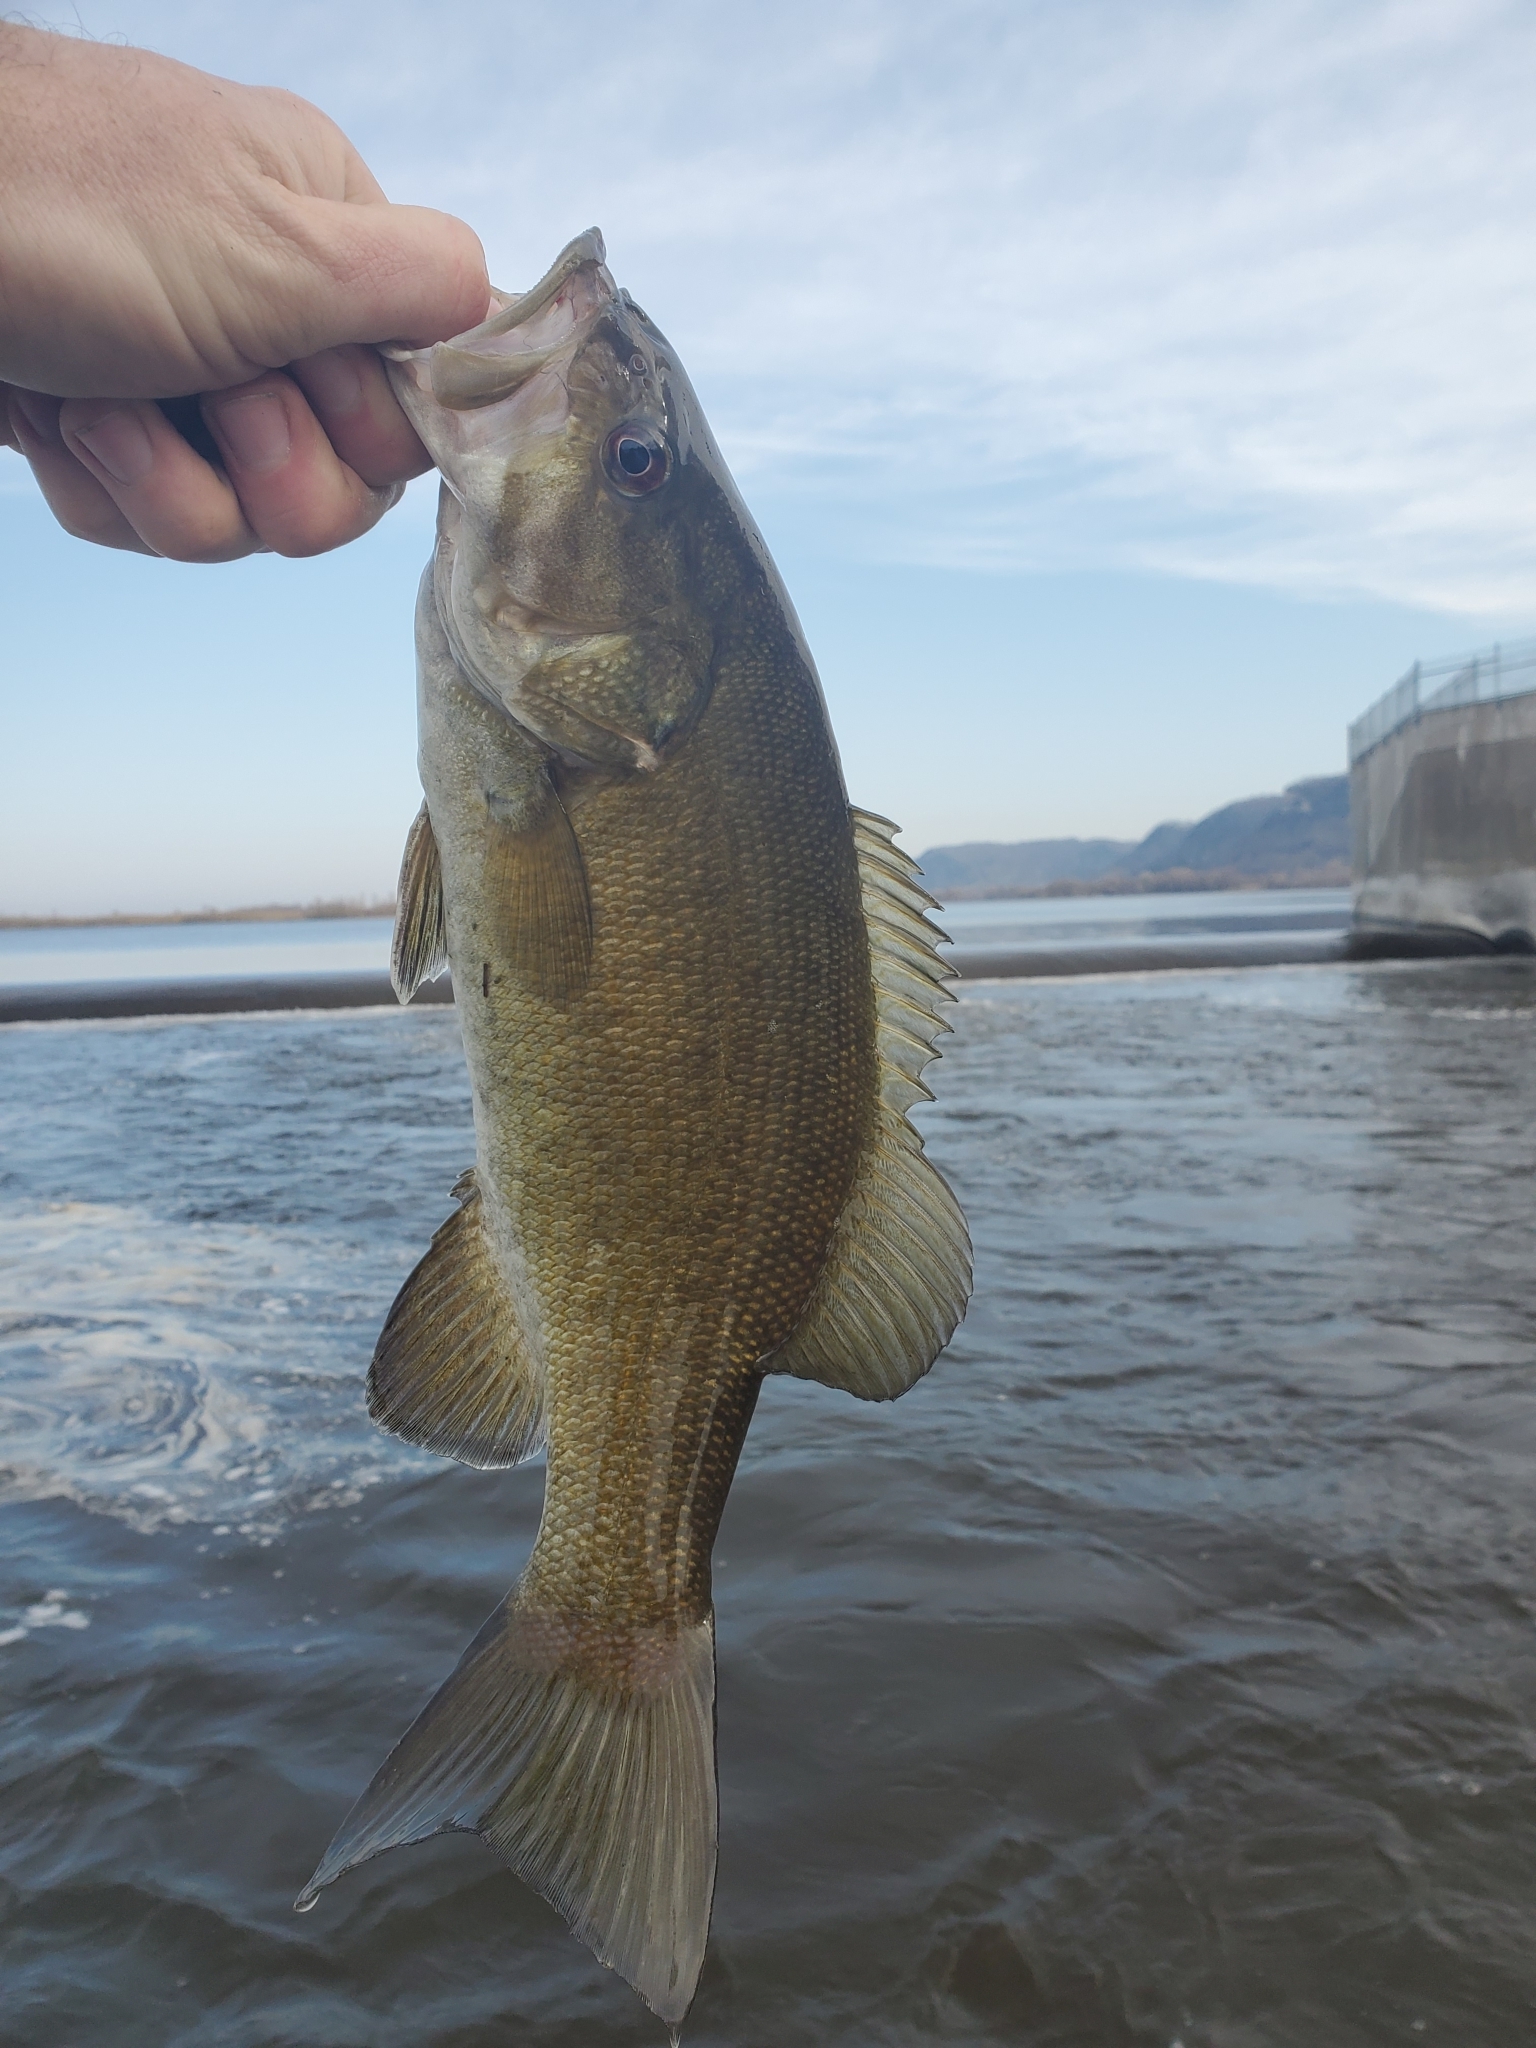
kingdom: Animalia
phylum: Chordata
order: Perciformes
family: Centrarchidae
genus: Micropterus
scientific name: Micropterus dolomieu
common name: Smallmouth bass
